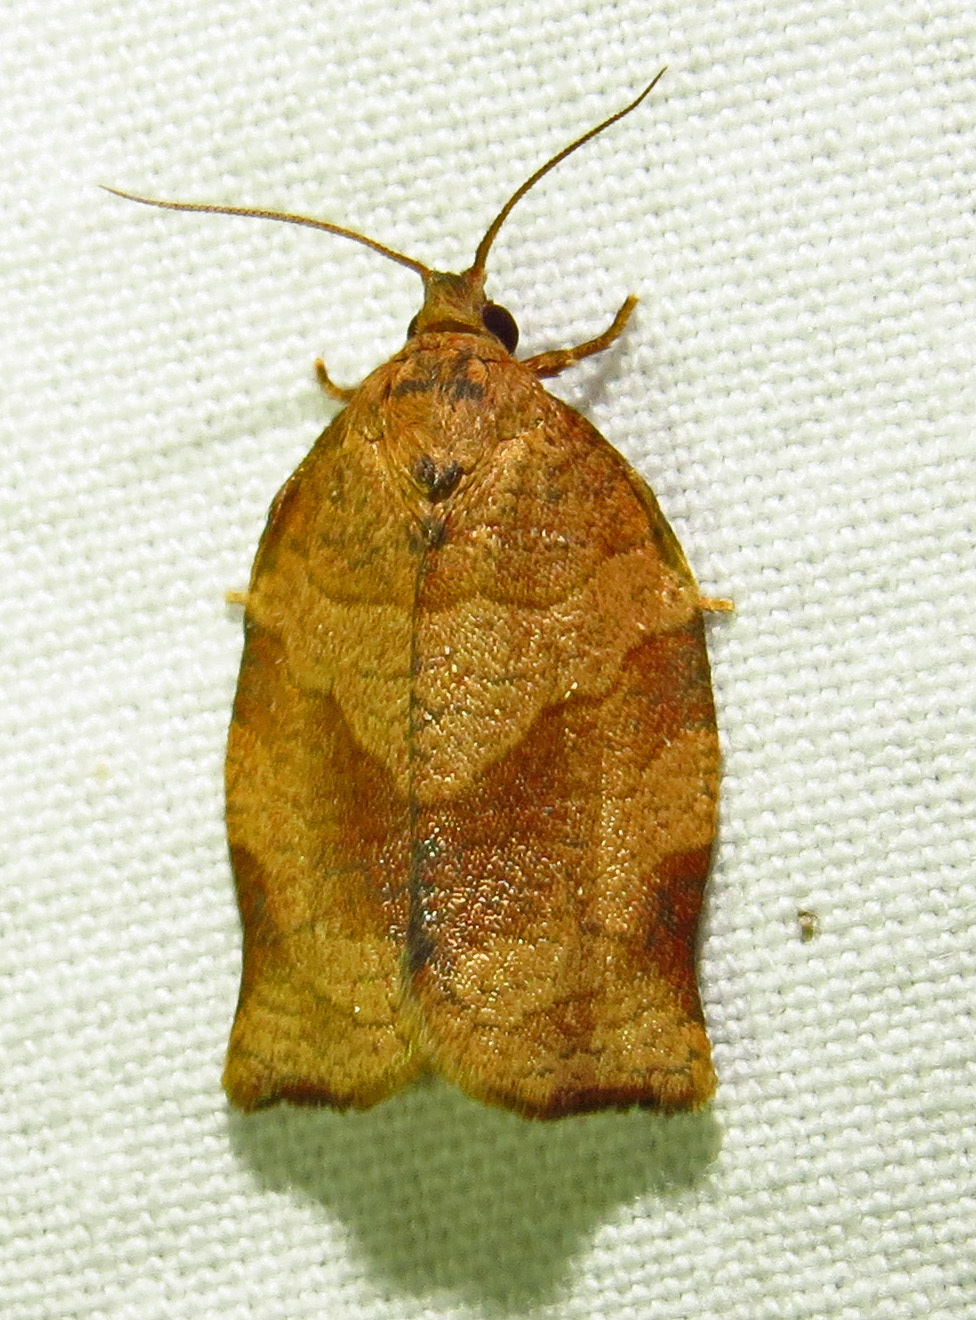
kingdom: Animalia
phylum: Arthropoda
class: Insecta
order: Lepidoptera
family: Tortricidae
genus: Choristoneura
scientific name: Choristoneura rosaceana
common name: Oblique-banded leafroller moth
